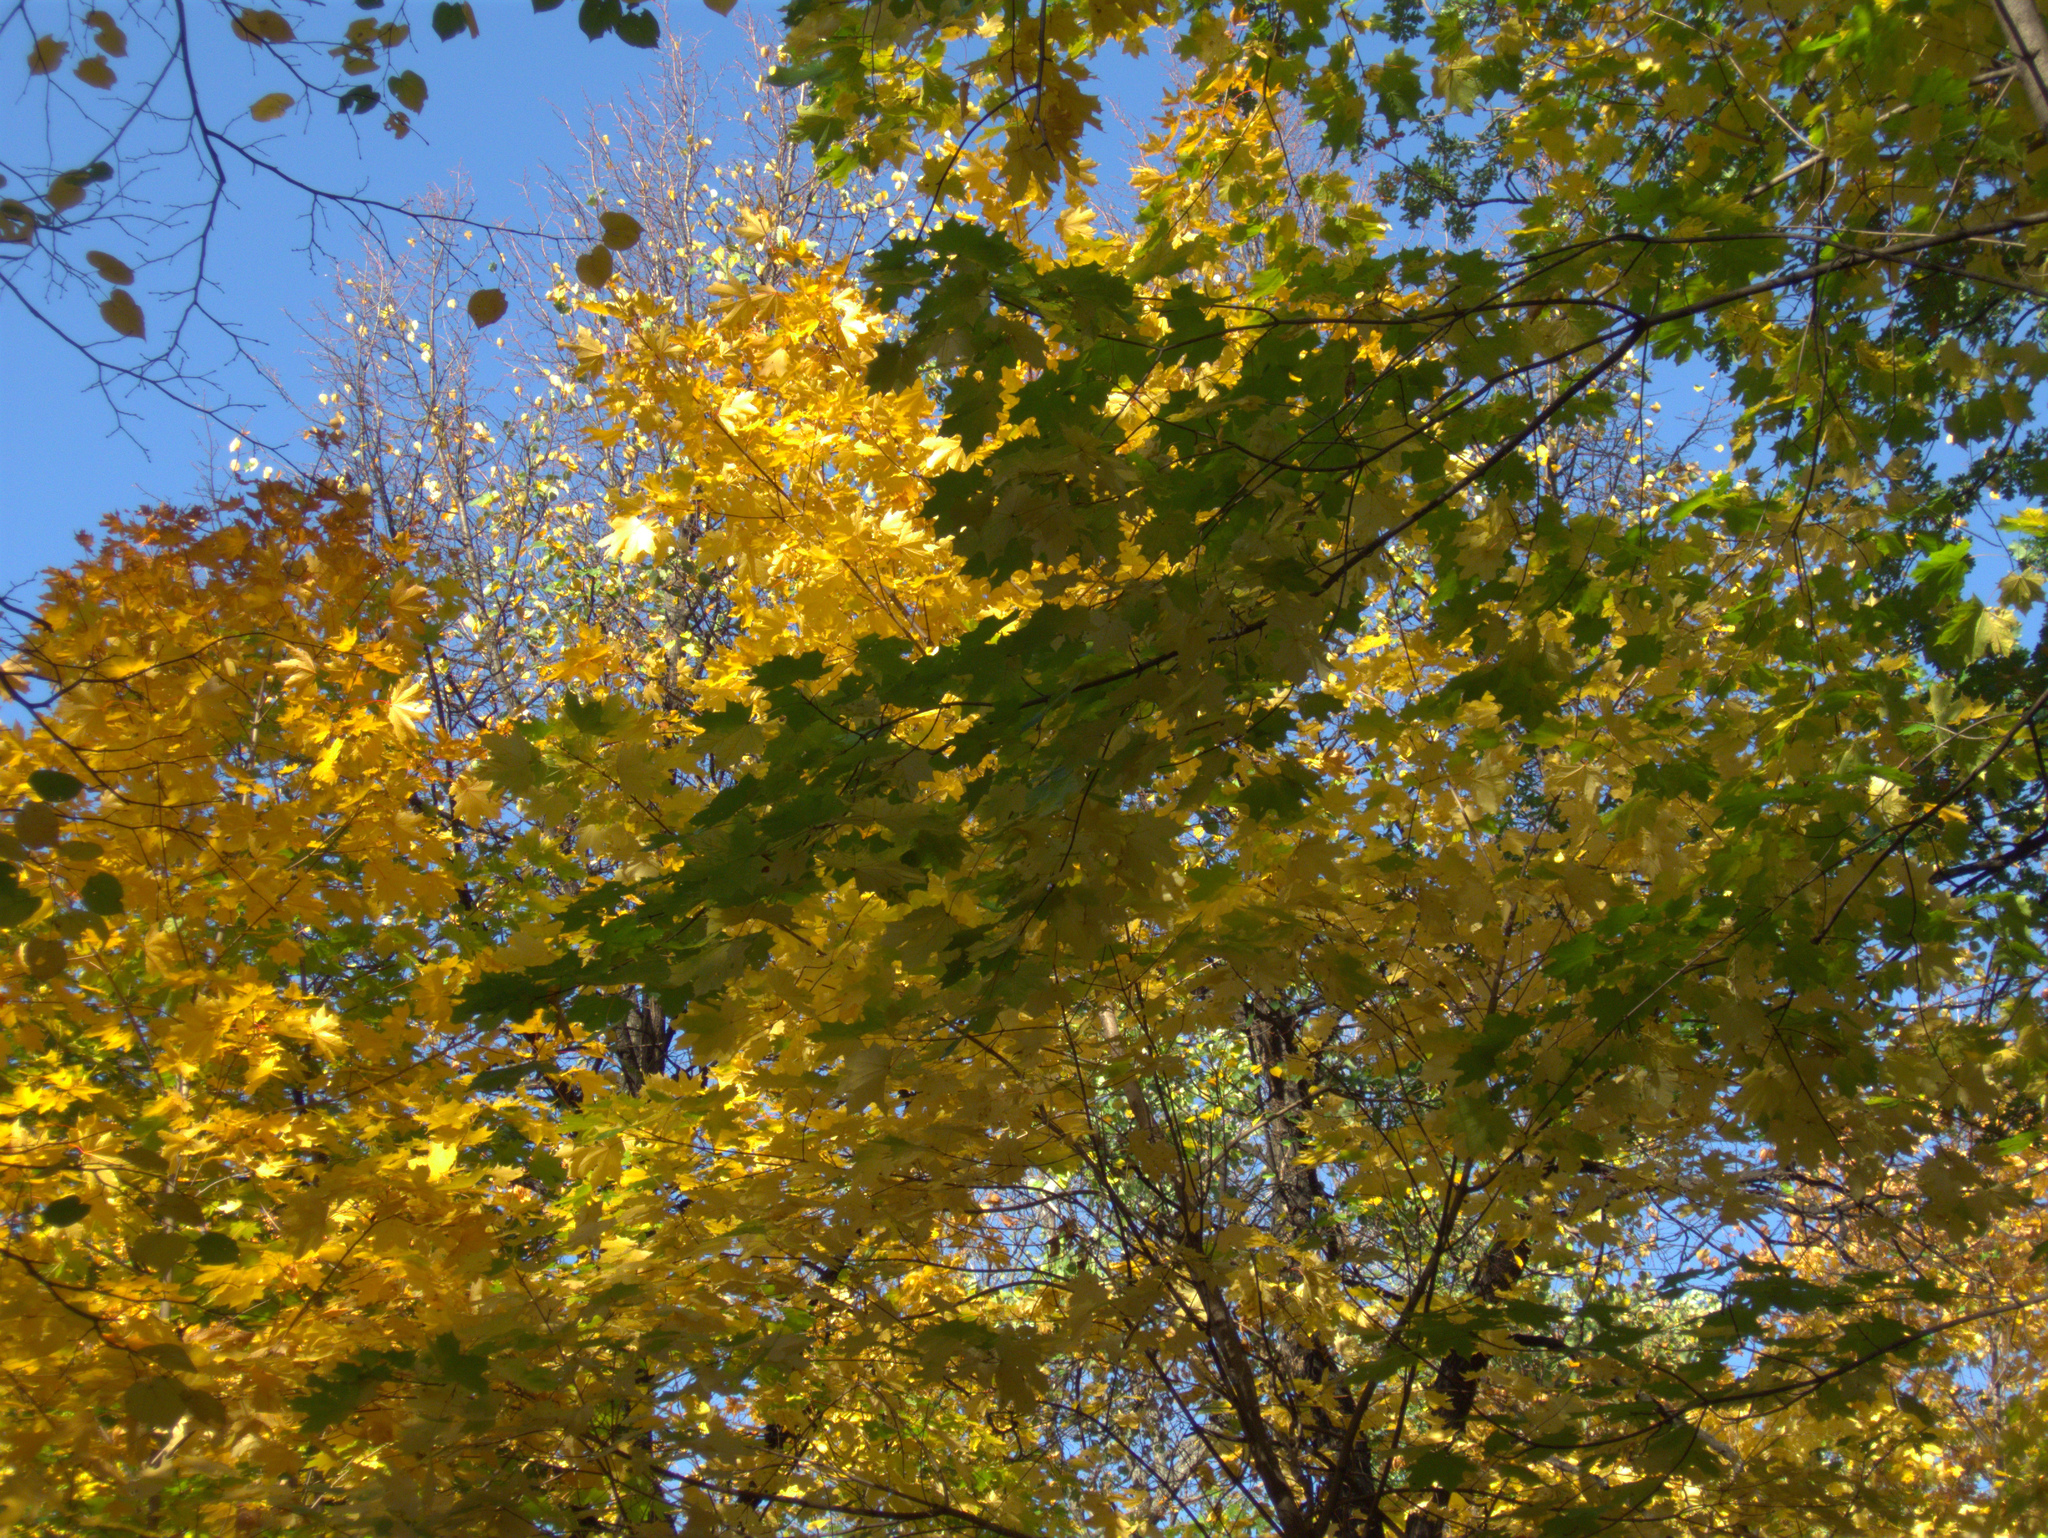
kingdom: Plantae
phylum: Tracheophyta
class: Magnoliopsida
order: Sapindales
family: Sapindaceae
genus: Acer
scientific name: Acer platanoides
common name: Norway maple
